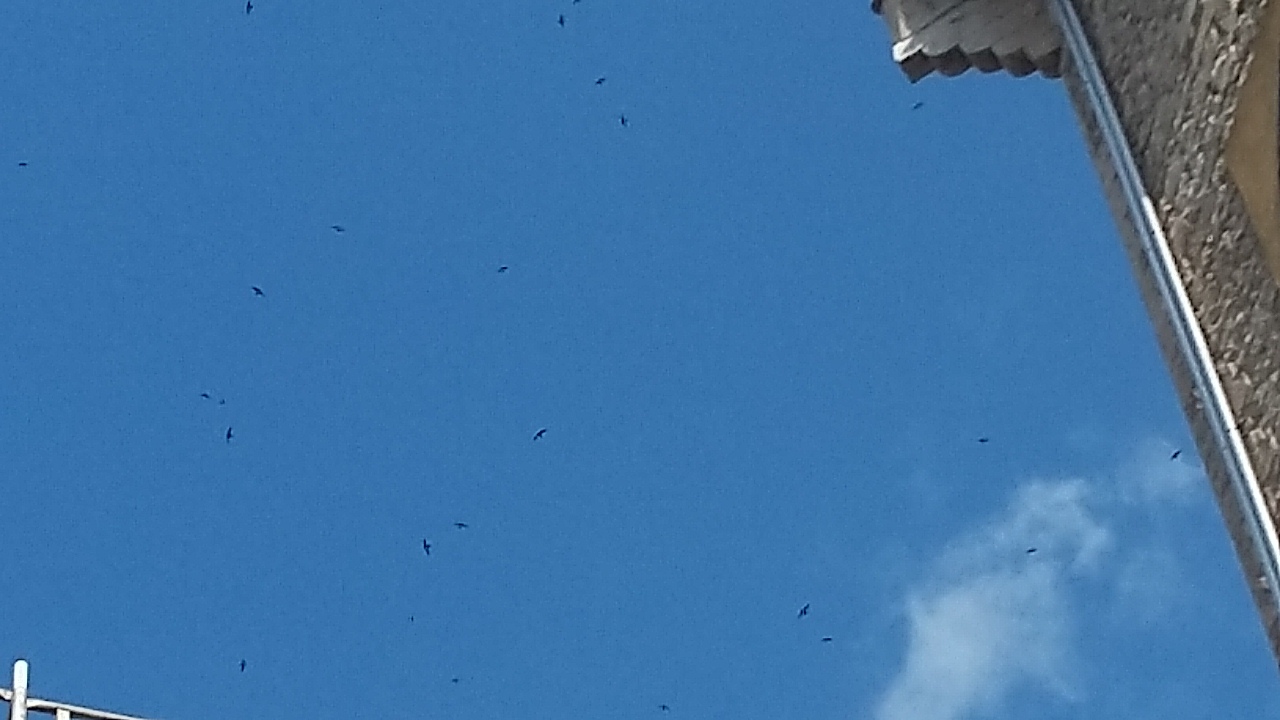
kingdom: Animalia
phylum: Chordata
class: Aves
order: Apodiformes
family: Apodidae
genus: Apus
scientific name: Apus apus
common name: Common swift
